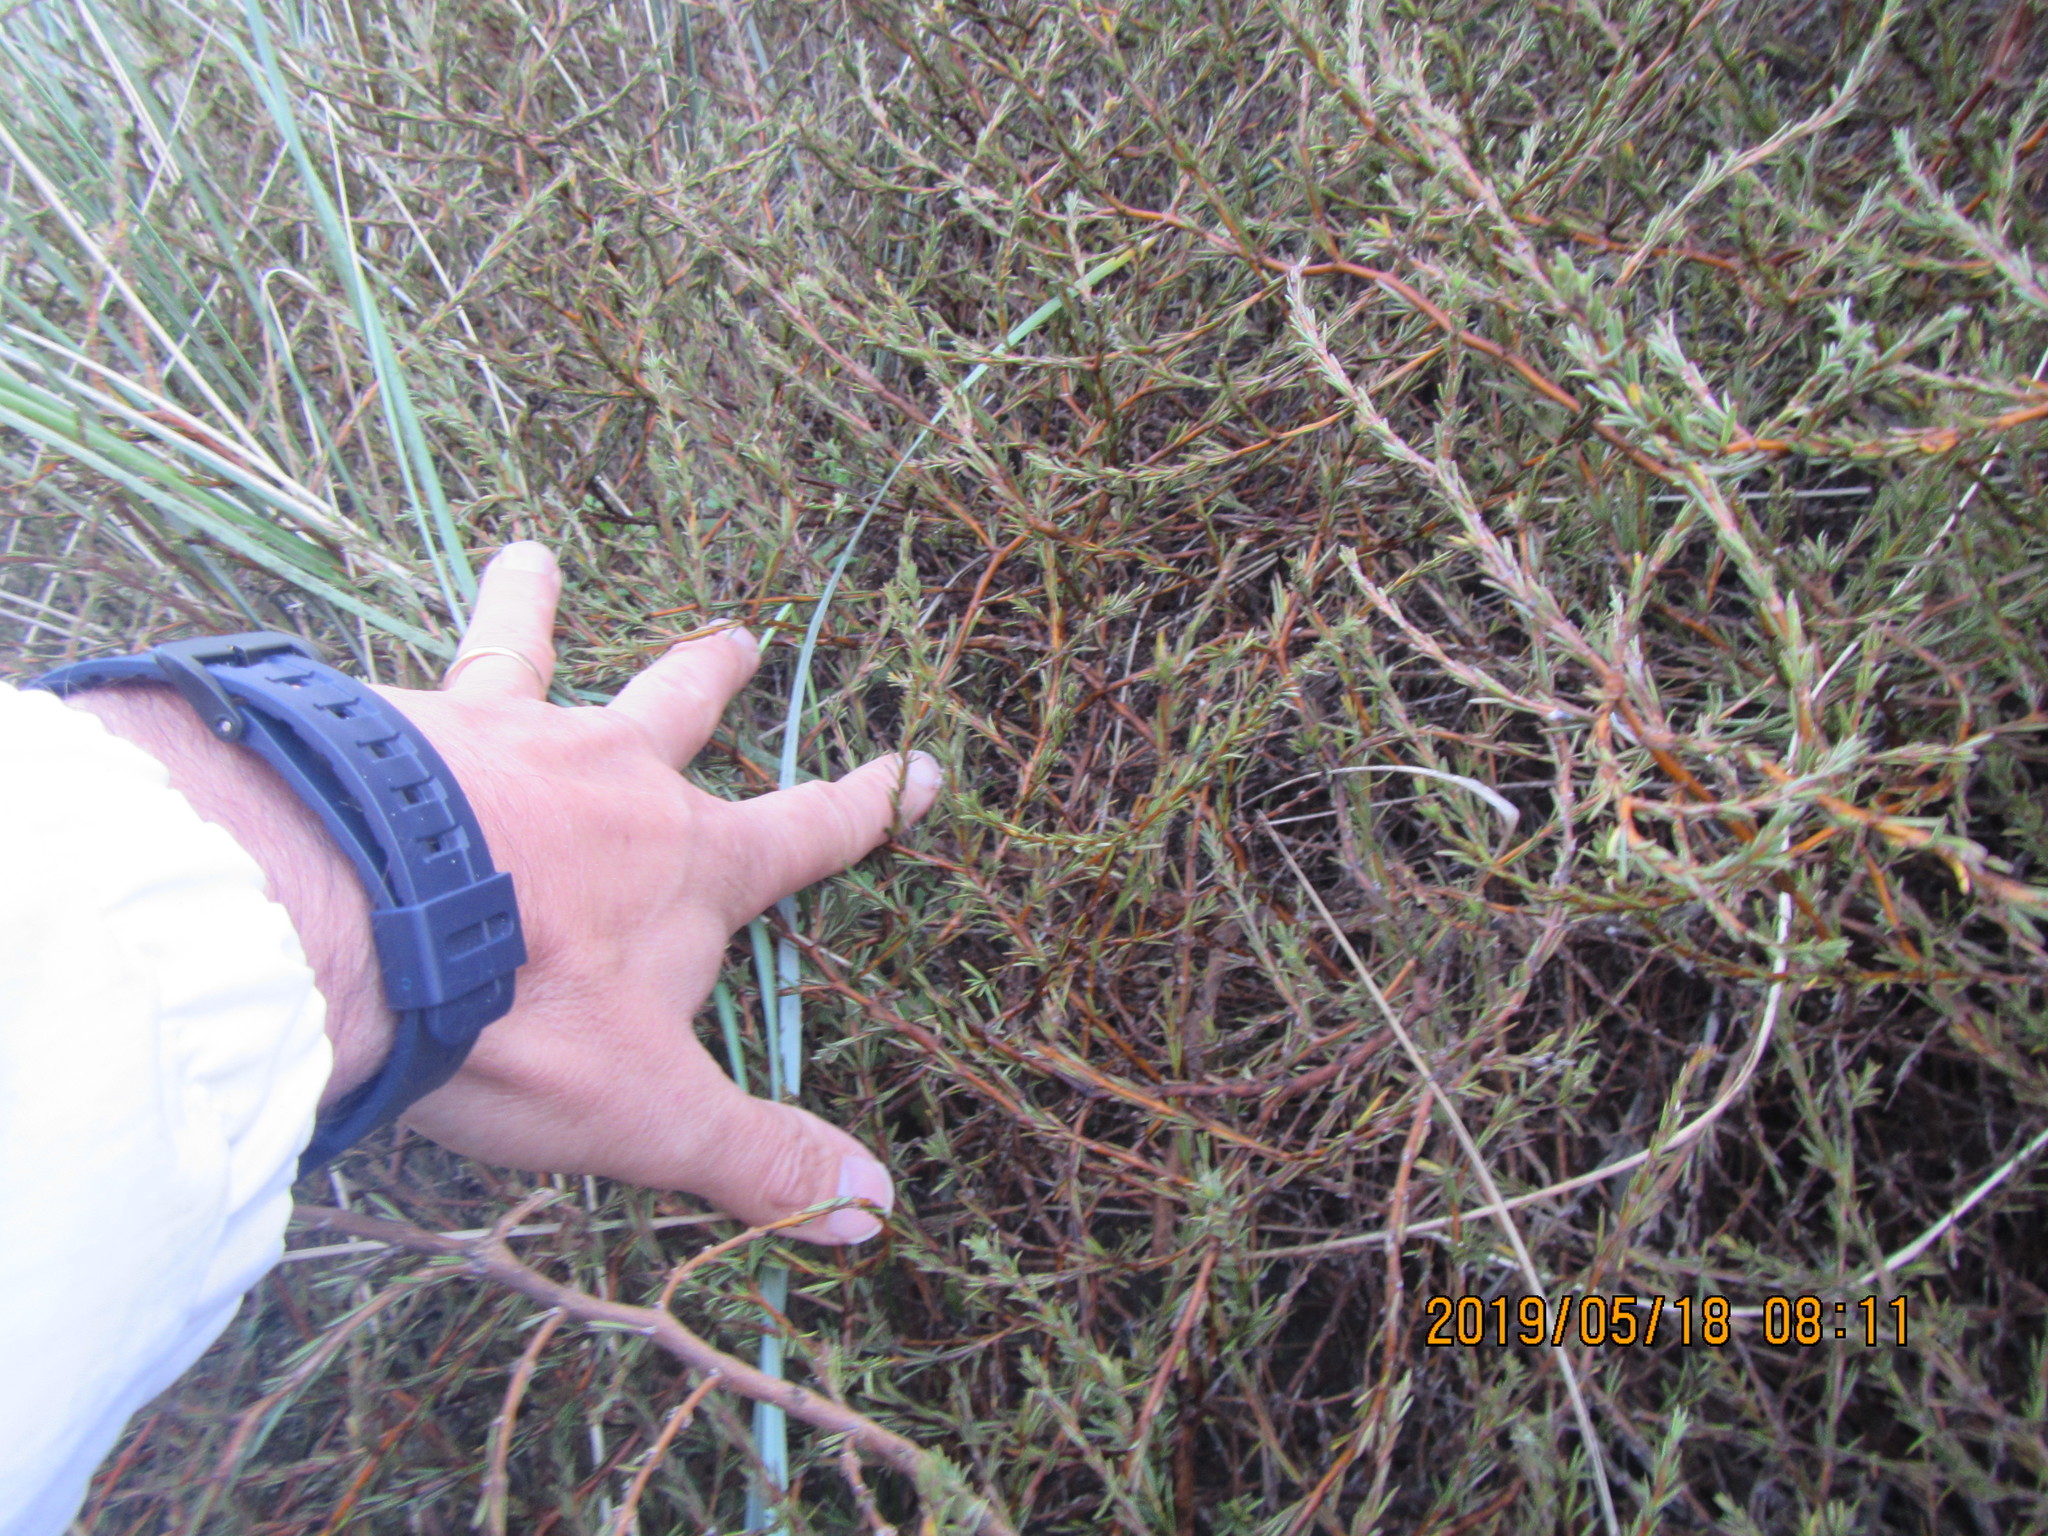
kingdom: Plantae
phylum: Tracheophyta
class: Magnoliopsida
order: Gentianales
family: Rubiaceae
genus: Coprosma
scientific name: Coprosma acerosa
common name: Sand coprosma
